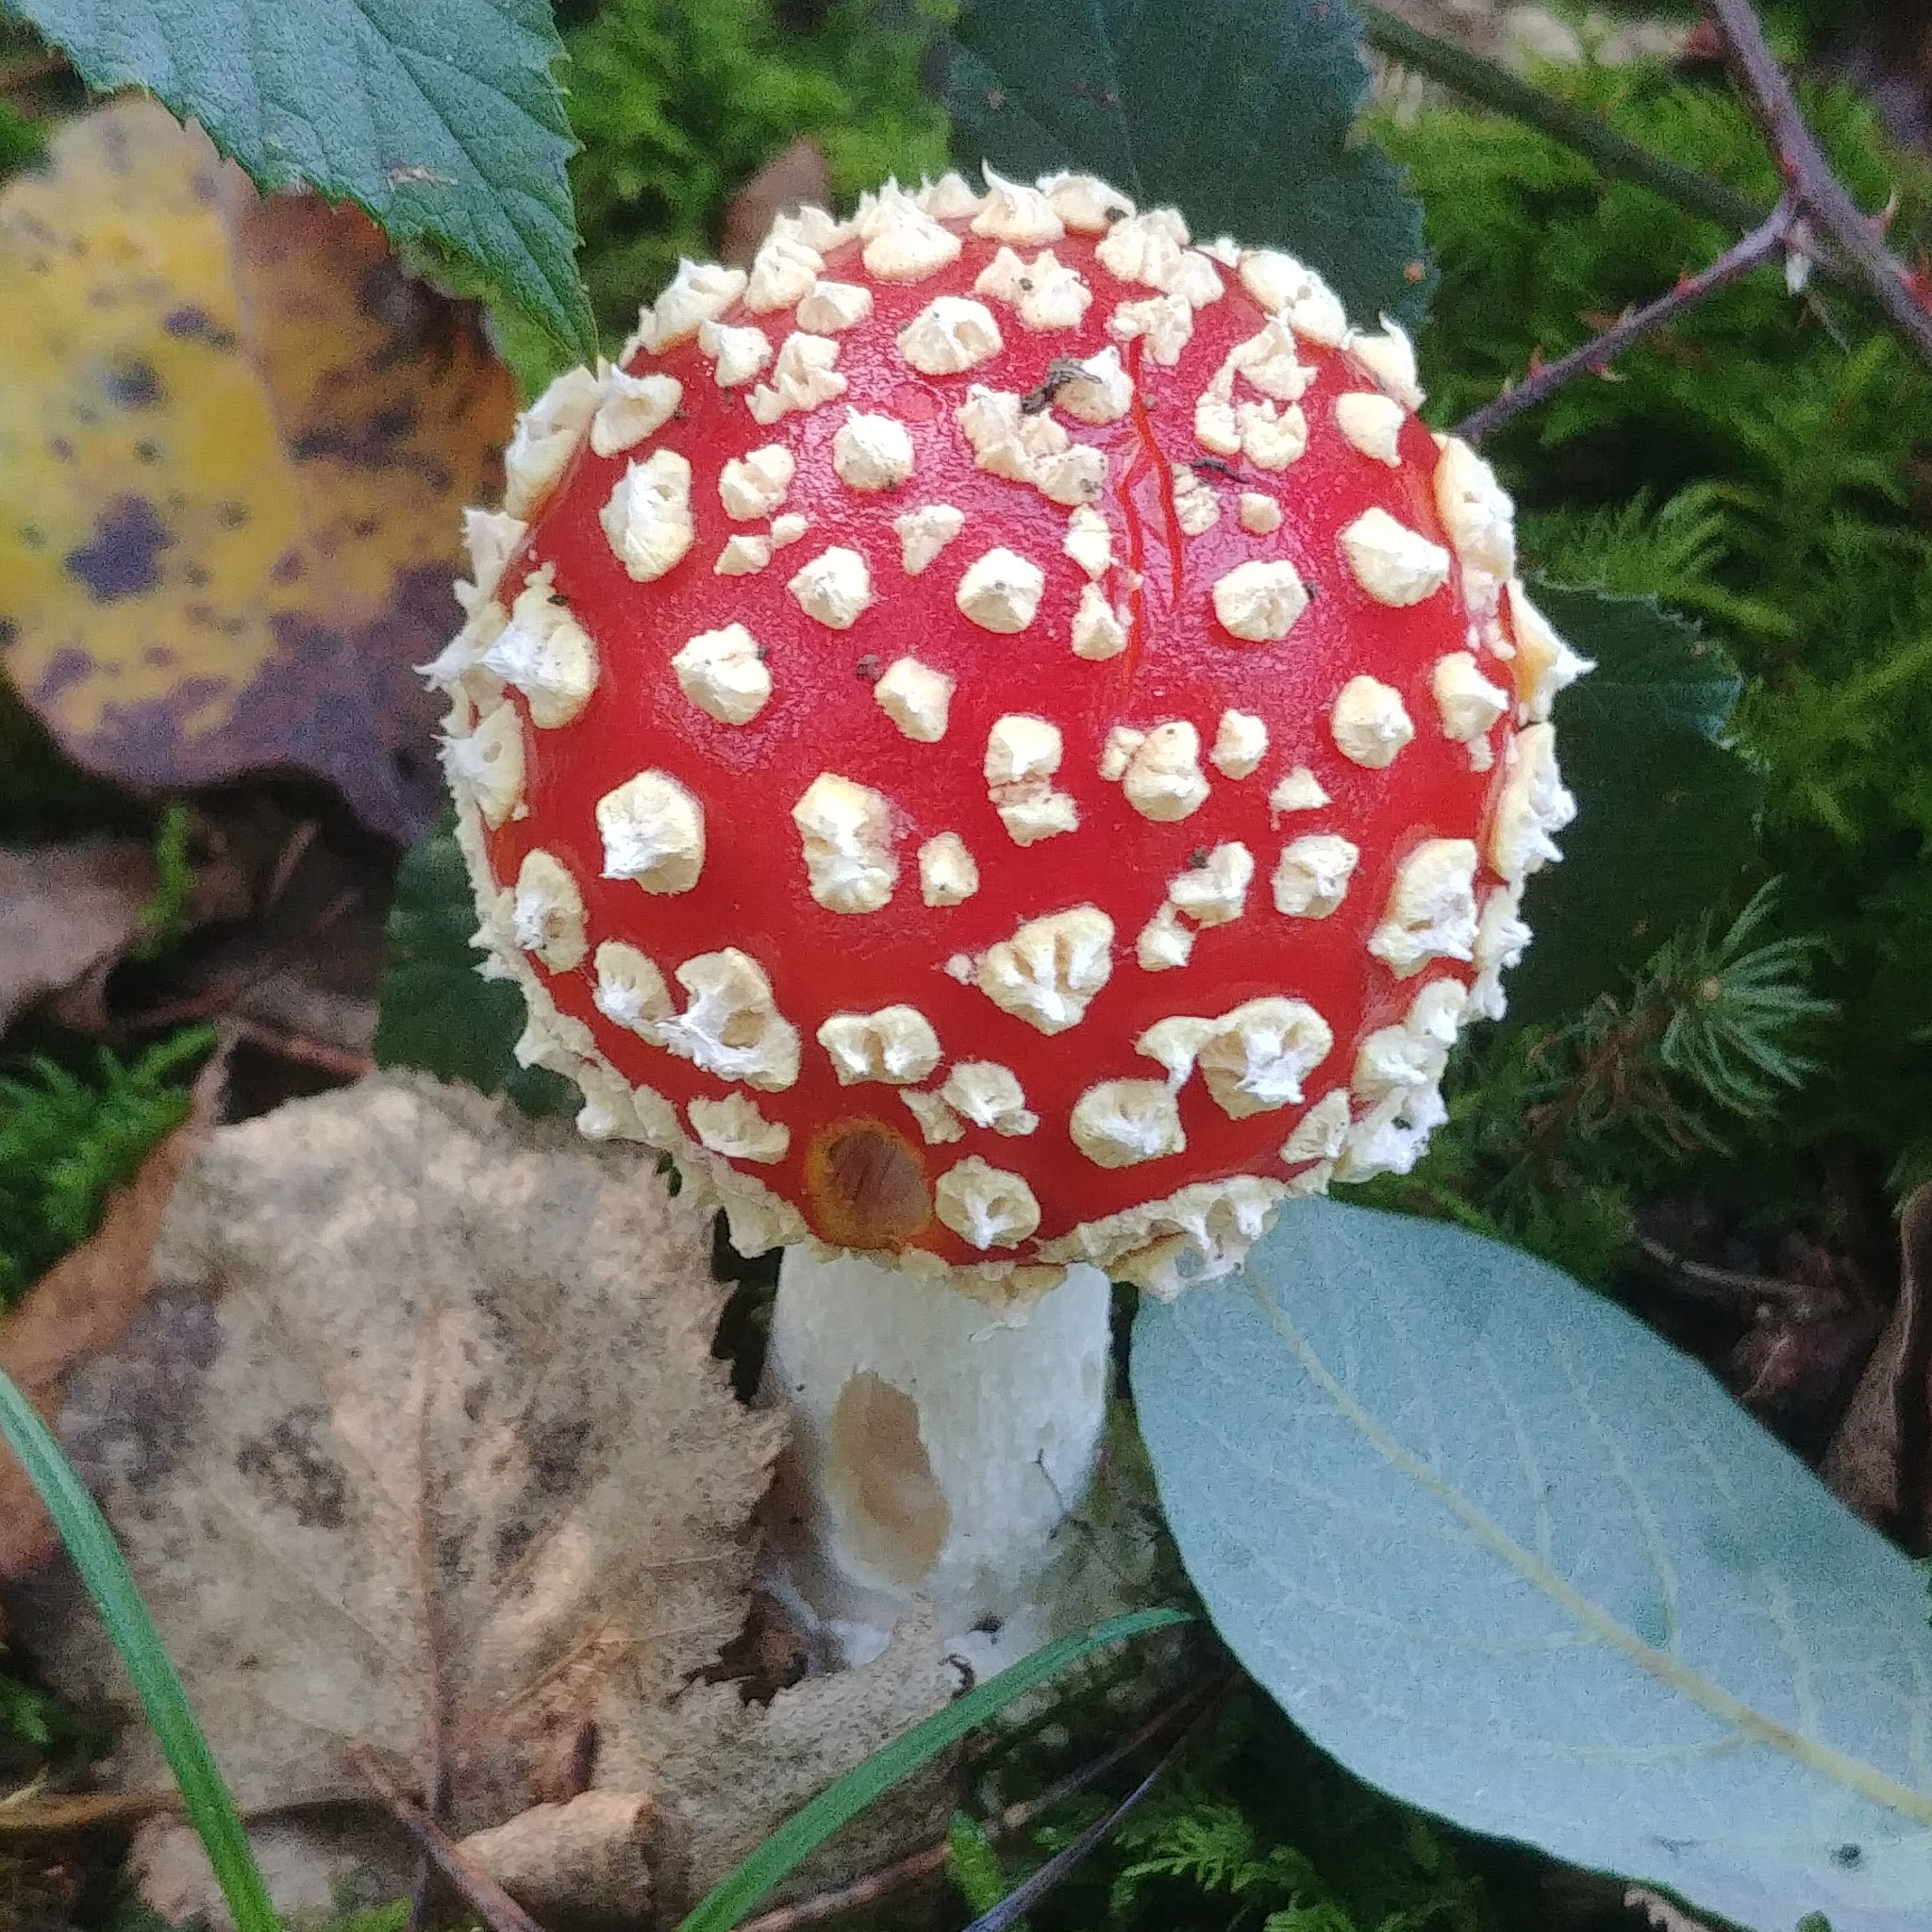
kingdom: Fungi
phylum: Basidiomycota
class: Agaricomycetes
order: Agaricales
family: Amanitaceae
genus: Amanita
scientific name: Amanita muscaria
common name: Fly agaric
